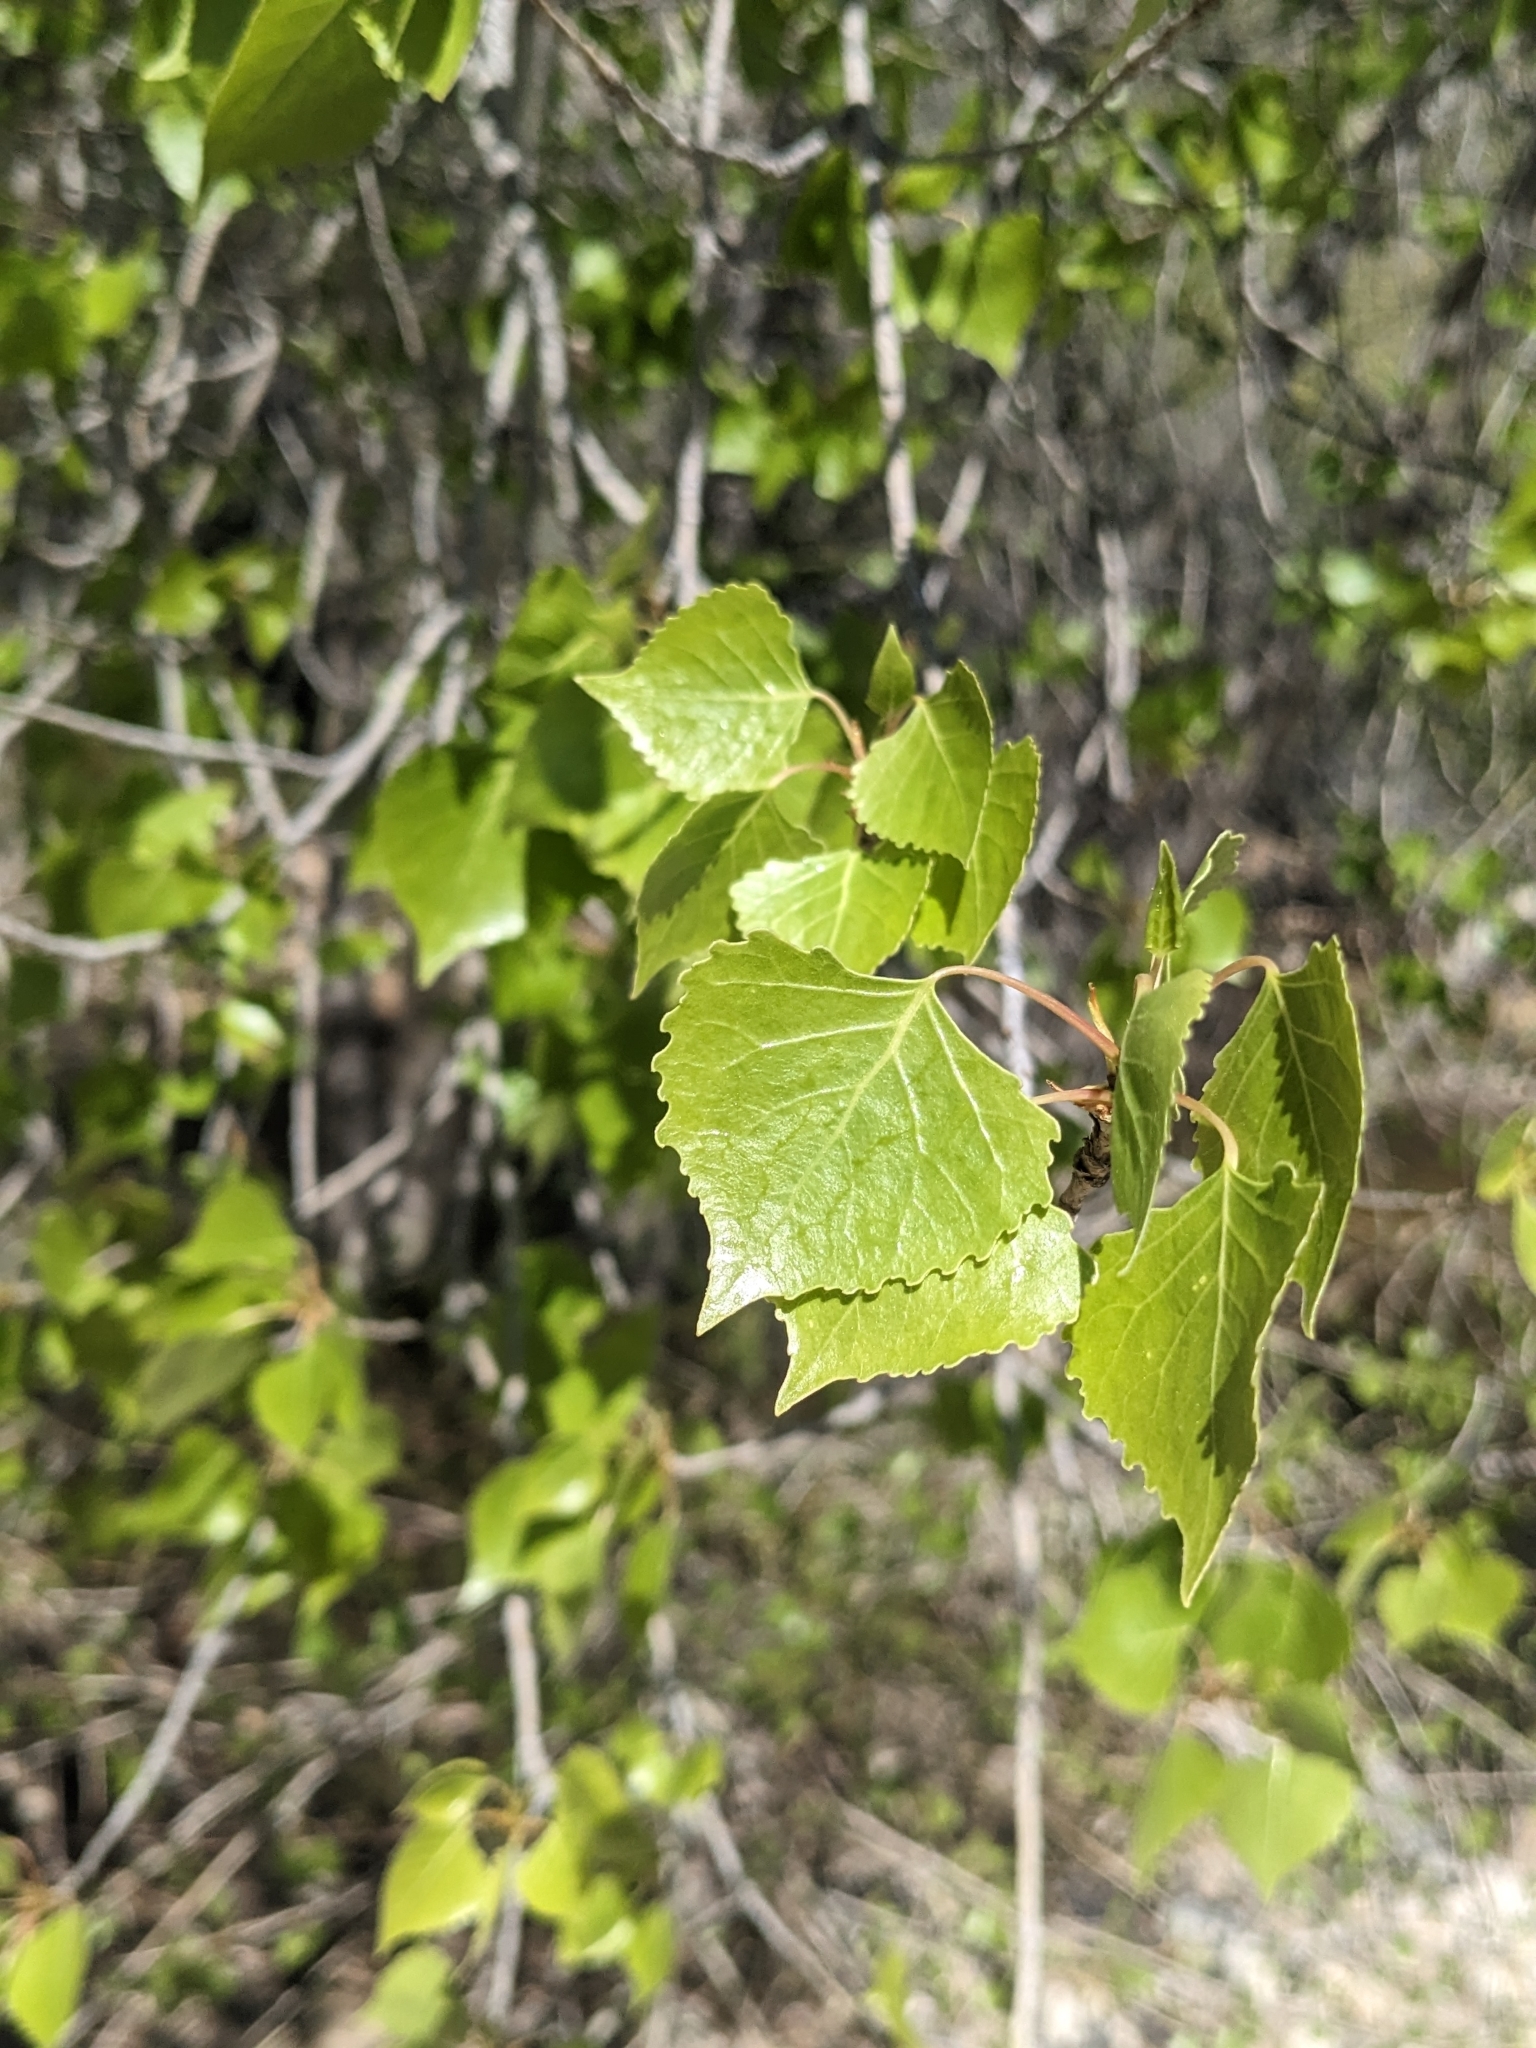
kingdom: Plantae
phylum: Tracheophyta
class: Magnoliopsida
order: Malpighiales
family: Salicaceae
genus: Populus
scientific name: Populus fremontii
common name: Fremont's cottonwood
